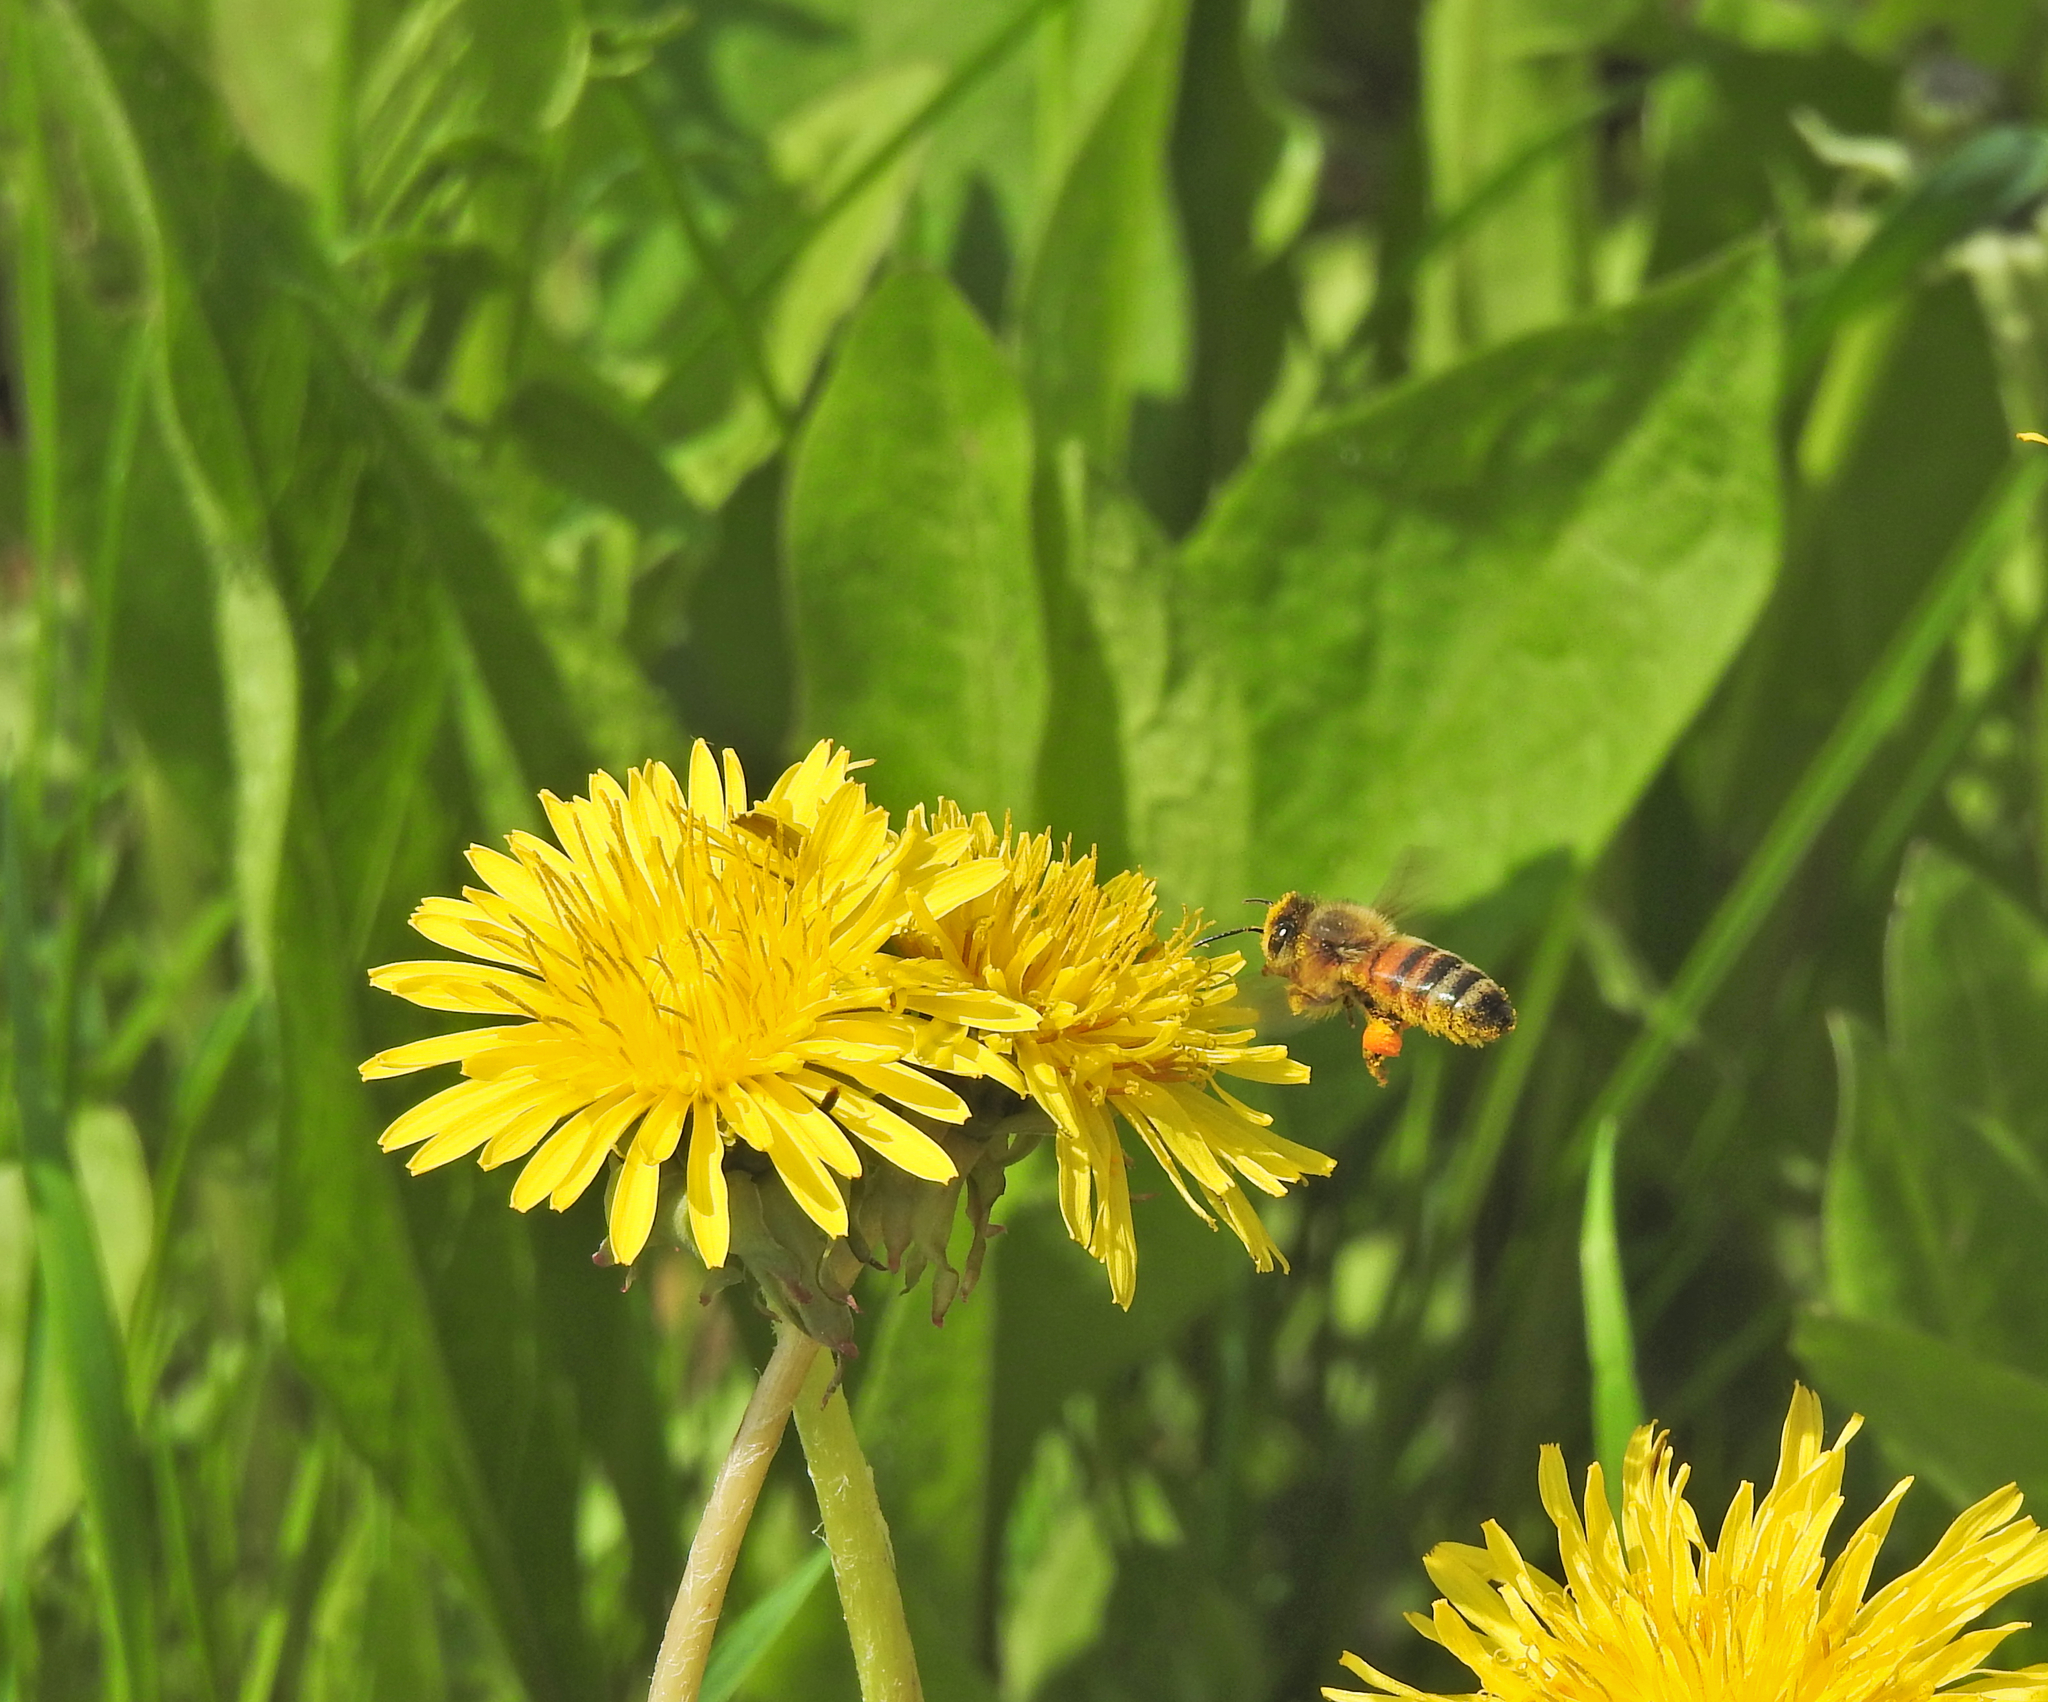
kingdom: Animalia
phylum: Arthropoda
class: Insecta
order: Hymenoptera
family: Apidae
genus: Apis
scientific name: Apis mellifera
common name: Honey bee
